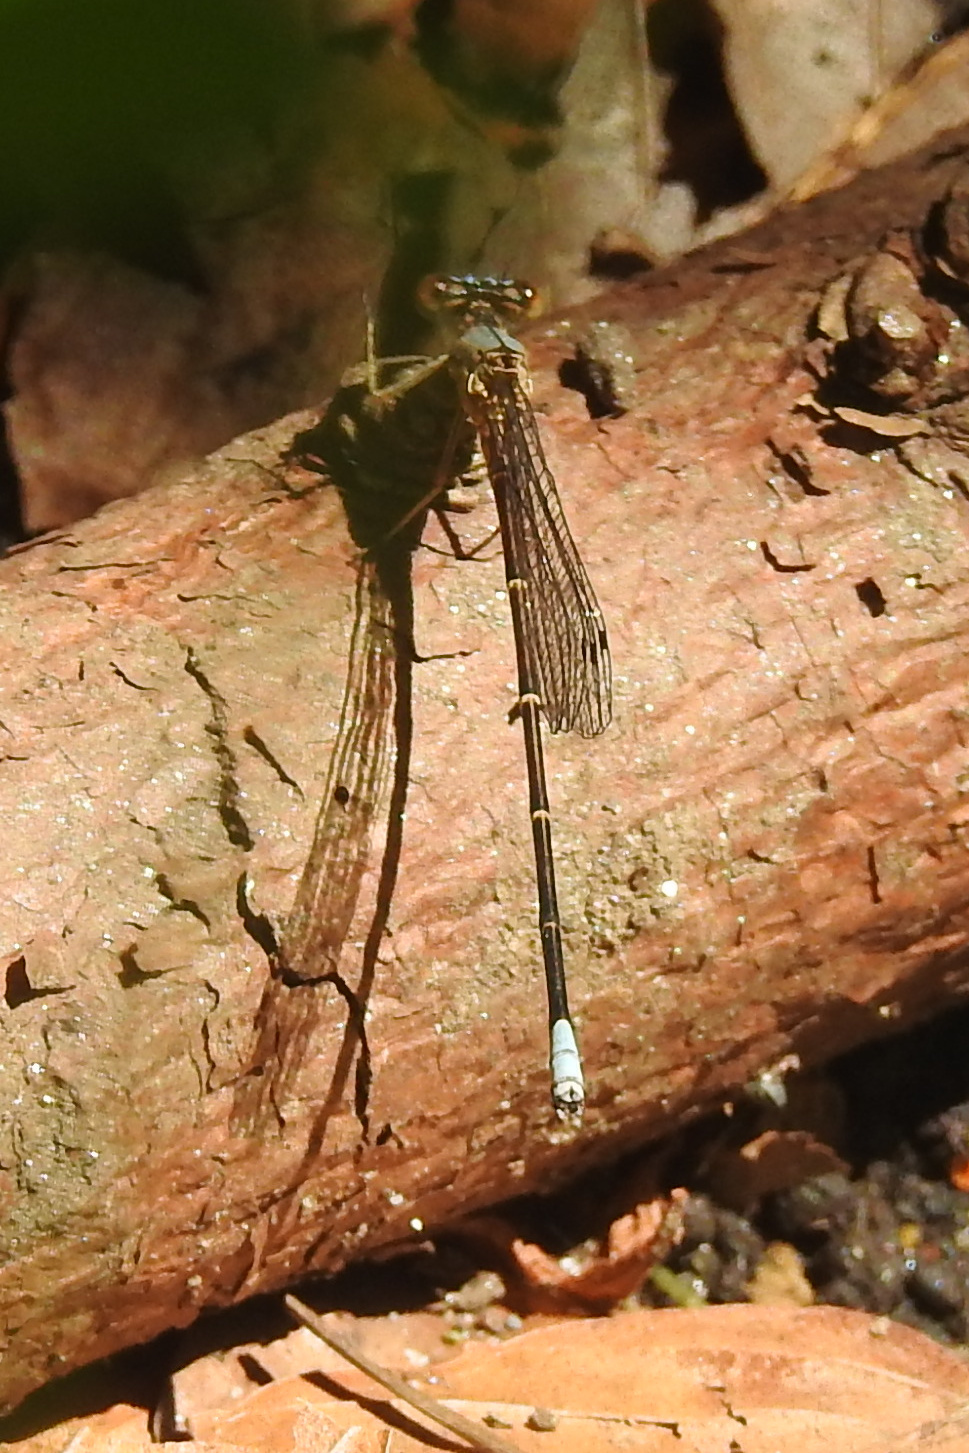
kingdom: Animalia
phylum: Arthropoda
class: Insecta
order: Odonata
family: Coenagrionidae
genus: Argia
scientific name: Argia apicalis
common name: Blue-fronted dancer
